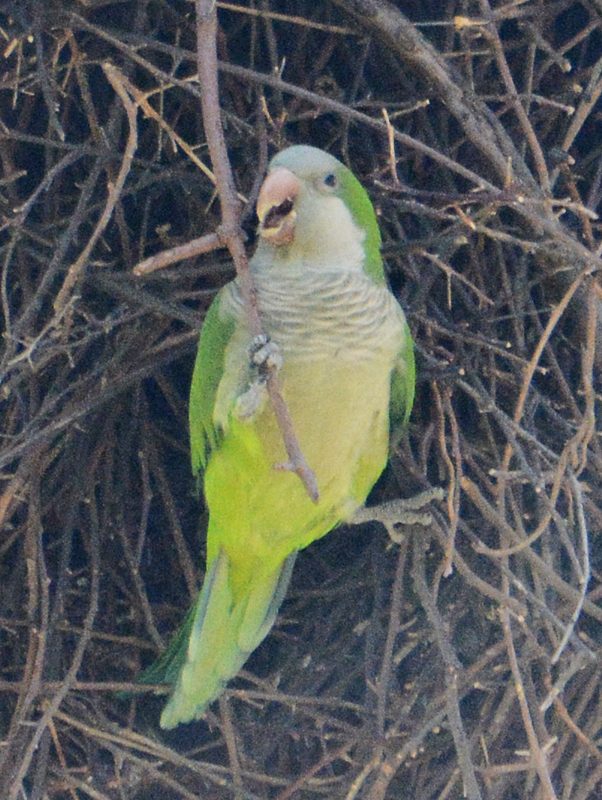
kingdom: Animalia
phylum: Chordata
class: Aves
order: Psittaciformes
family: Psittacidae
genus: Myiopsitta
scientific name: Myiopsitta monachus
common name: Monk parakeet
